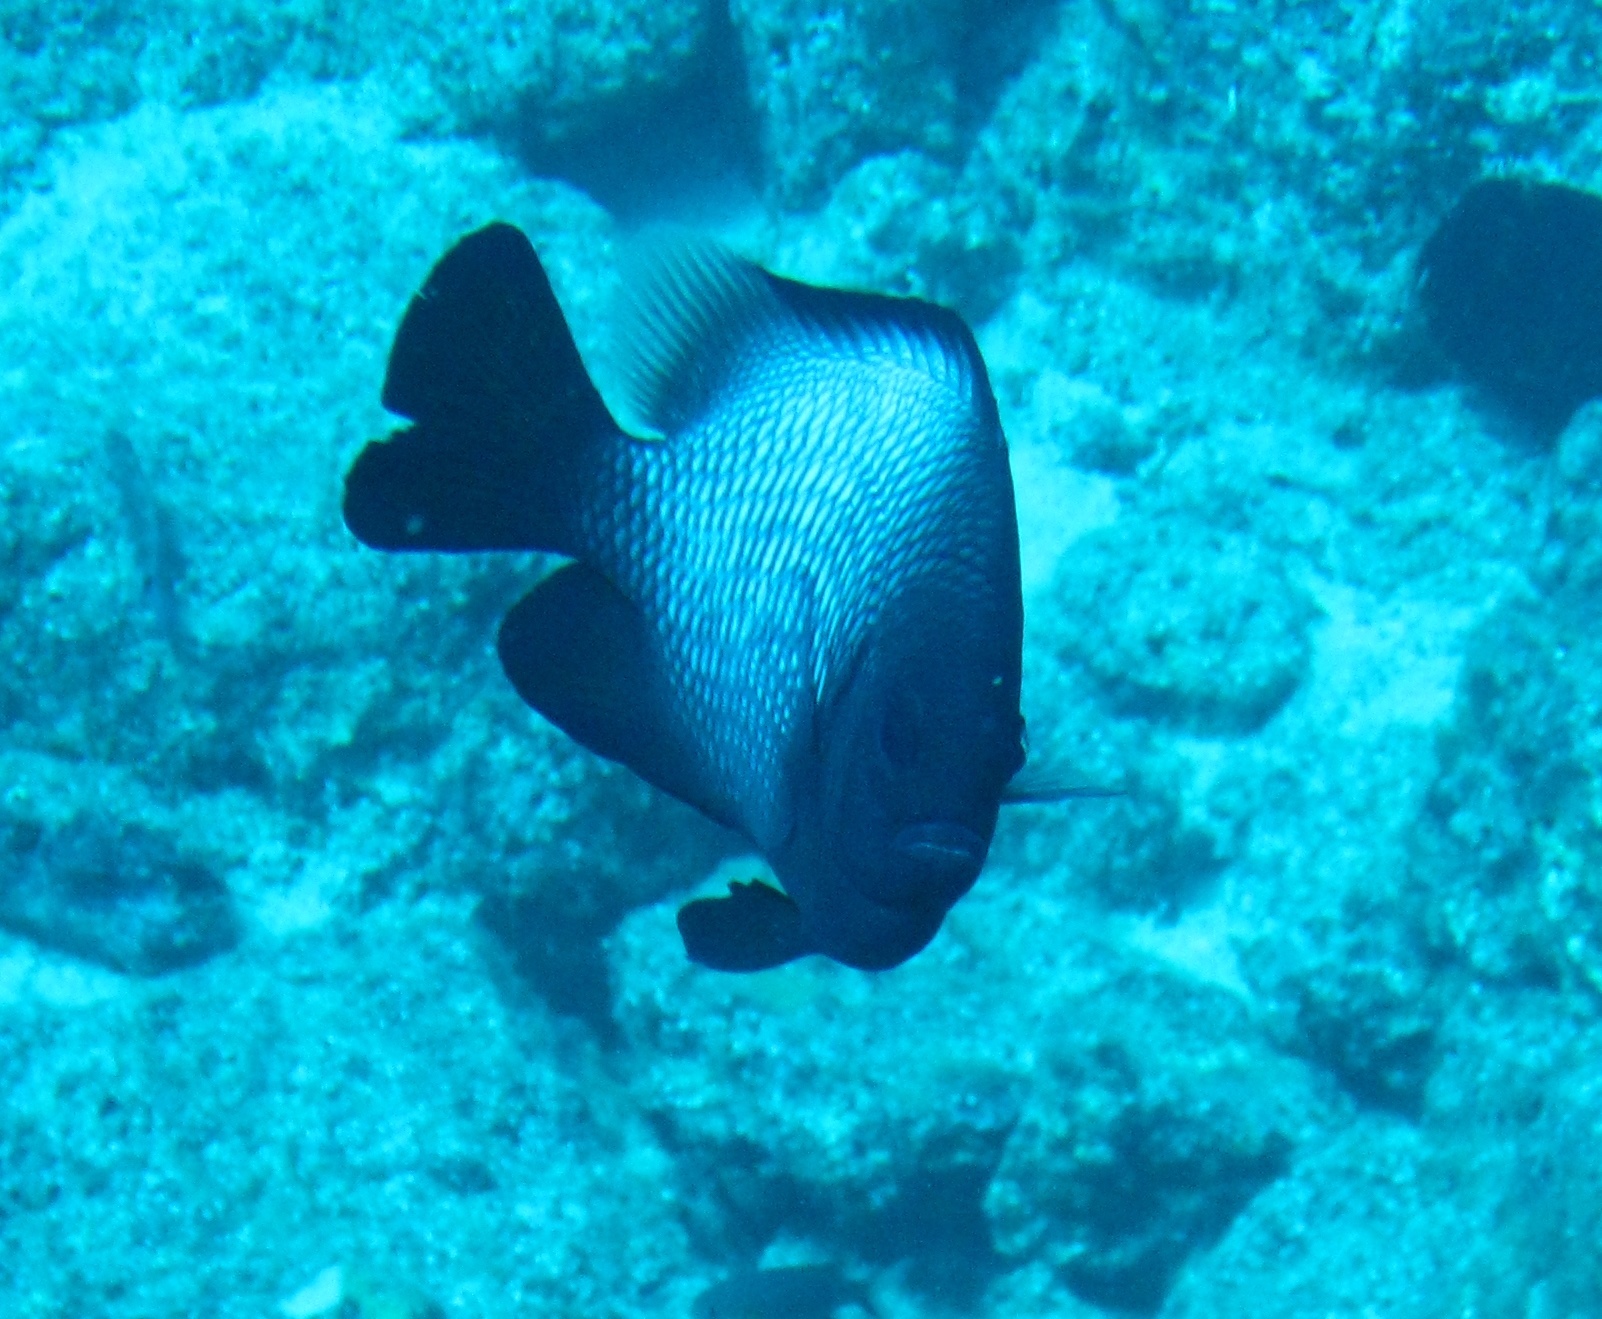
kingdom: Animalia
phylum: Chordata
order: Perciformes
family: Pomacentridae
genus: Dascyllus
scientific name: Dascyllus albisella
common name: Hawaiian dascyllus
